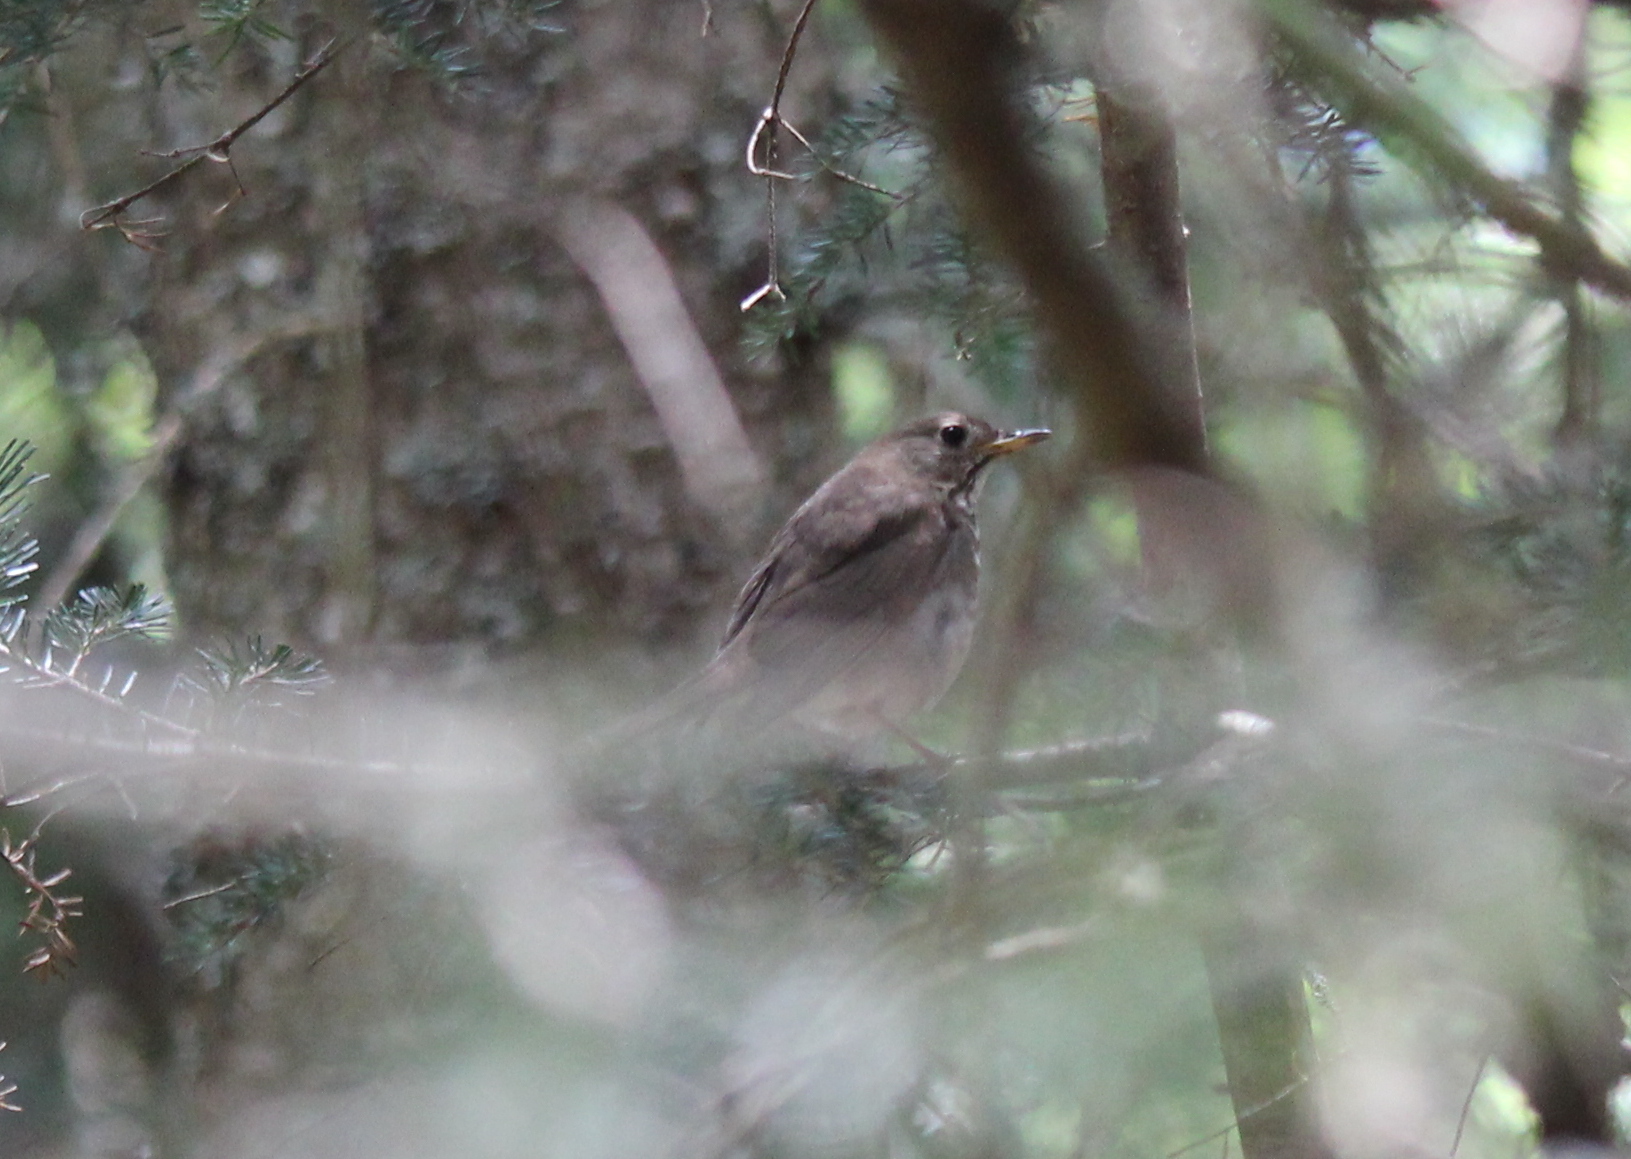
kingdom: Animalia
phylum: Chordata
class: Aves
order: Passeriformes
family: Turdidae
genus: Catharus
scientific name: Catharus bicknelli
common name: Bicknell's thrush
